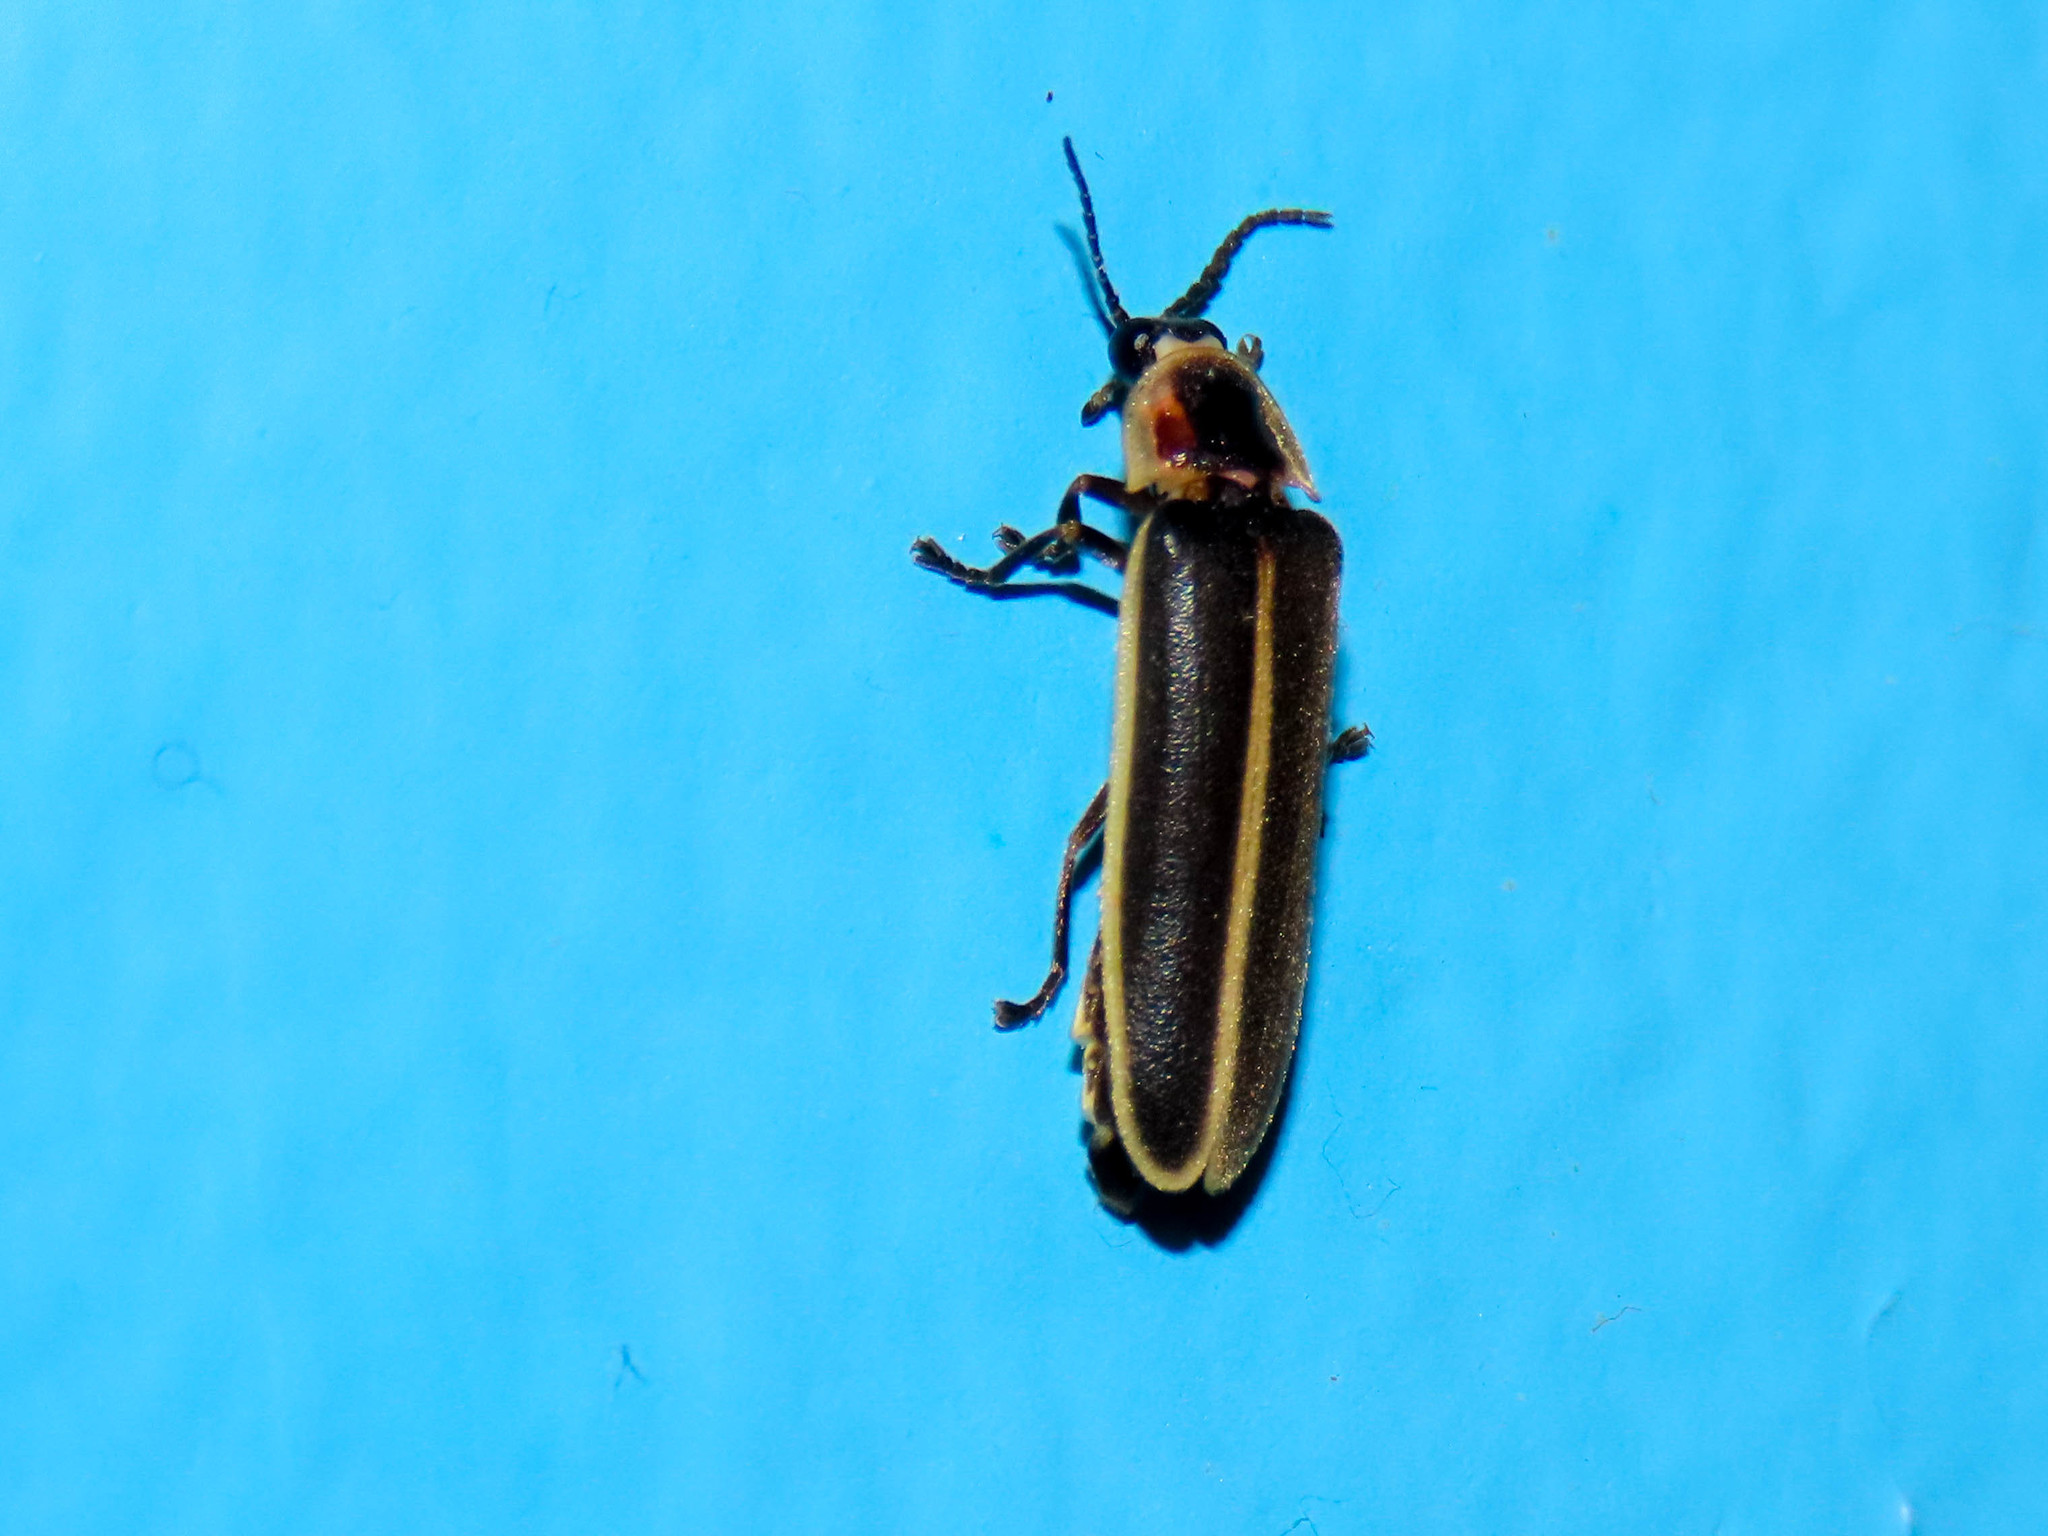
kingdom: Animalia
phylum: Arthropoda
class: Insecta
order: Coleoptera
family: Lampyridae
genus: Photinus
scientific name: Photinus obscurellus
